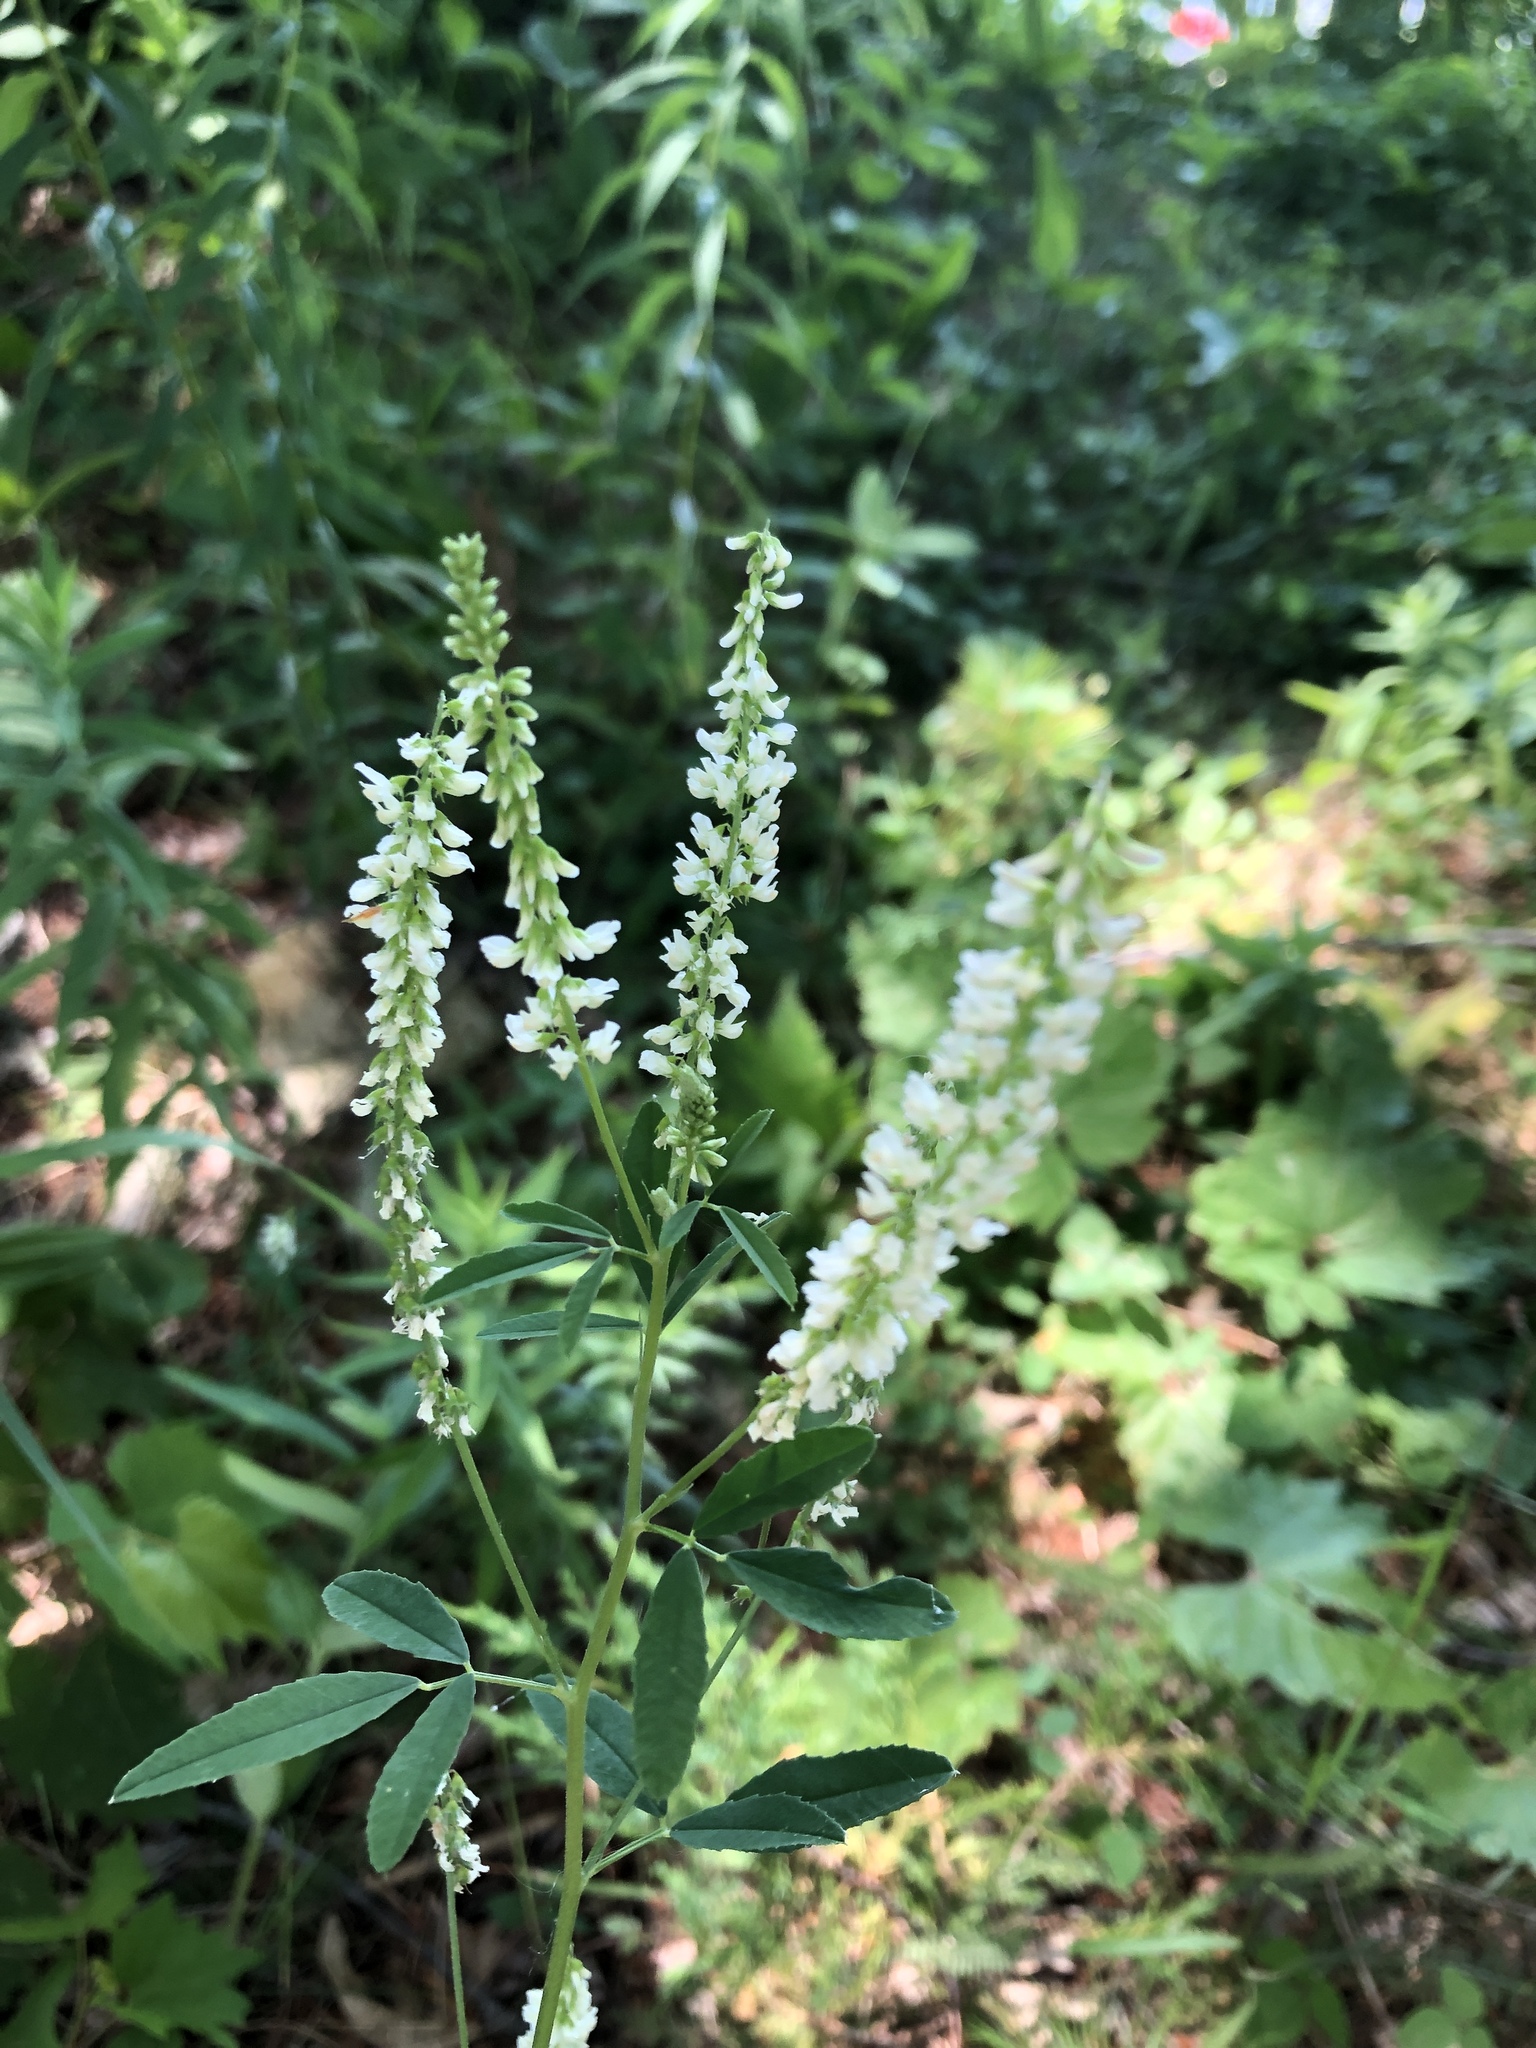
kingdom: Plantae
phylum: Tracheophyta
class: Magnoliopsida
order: Fabales
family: Fabaceae
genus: Melilotus
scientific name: Melilotus albus
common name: White melilot
